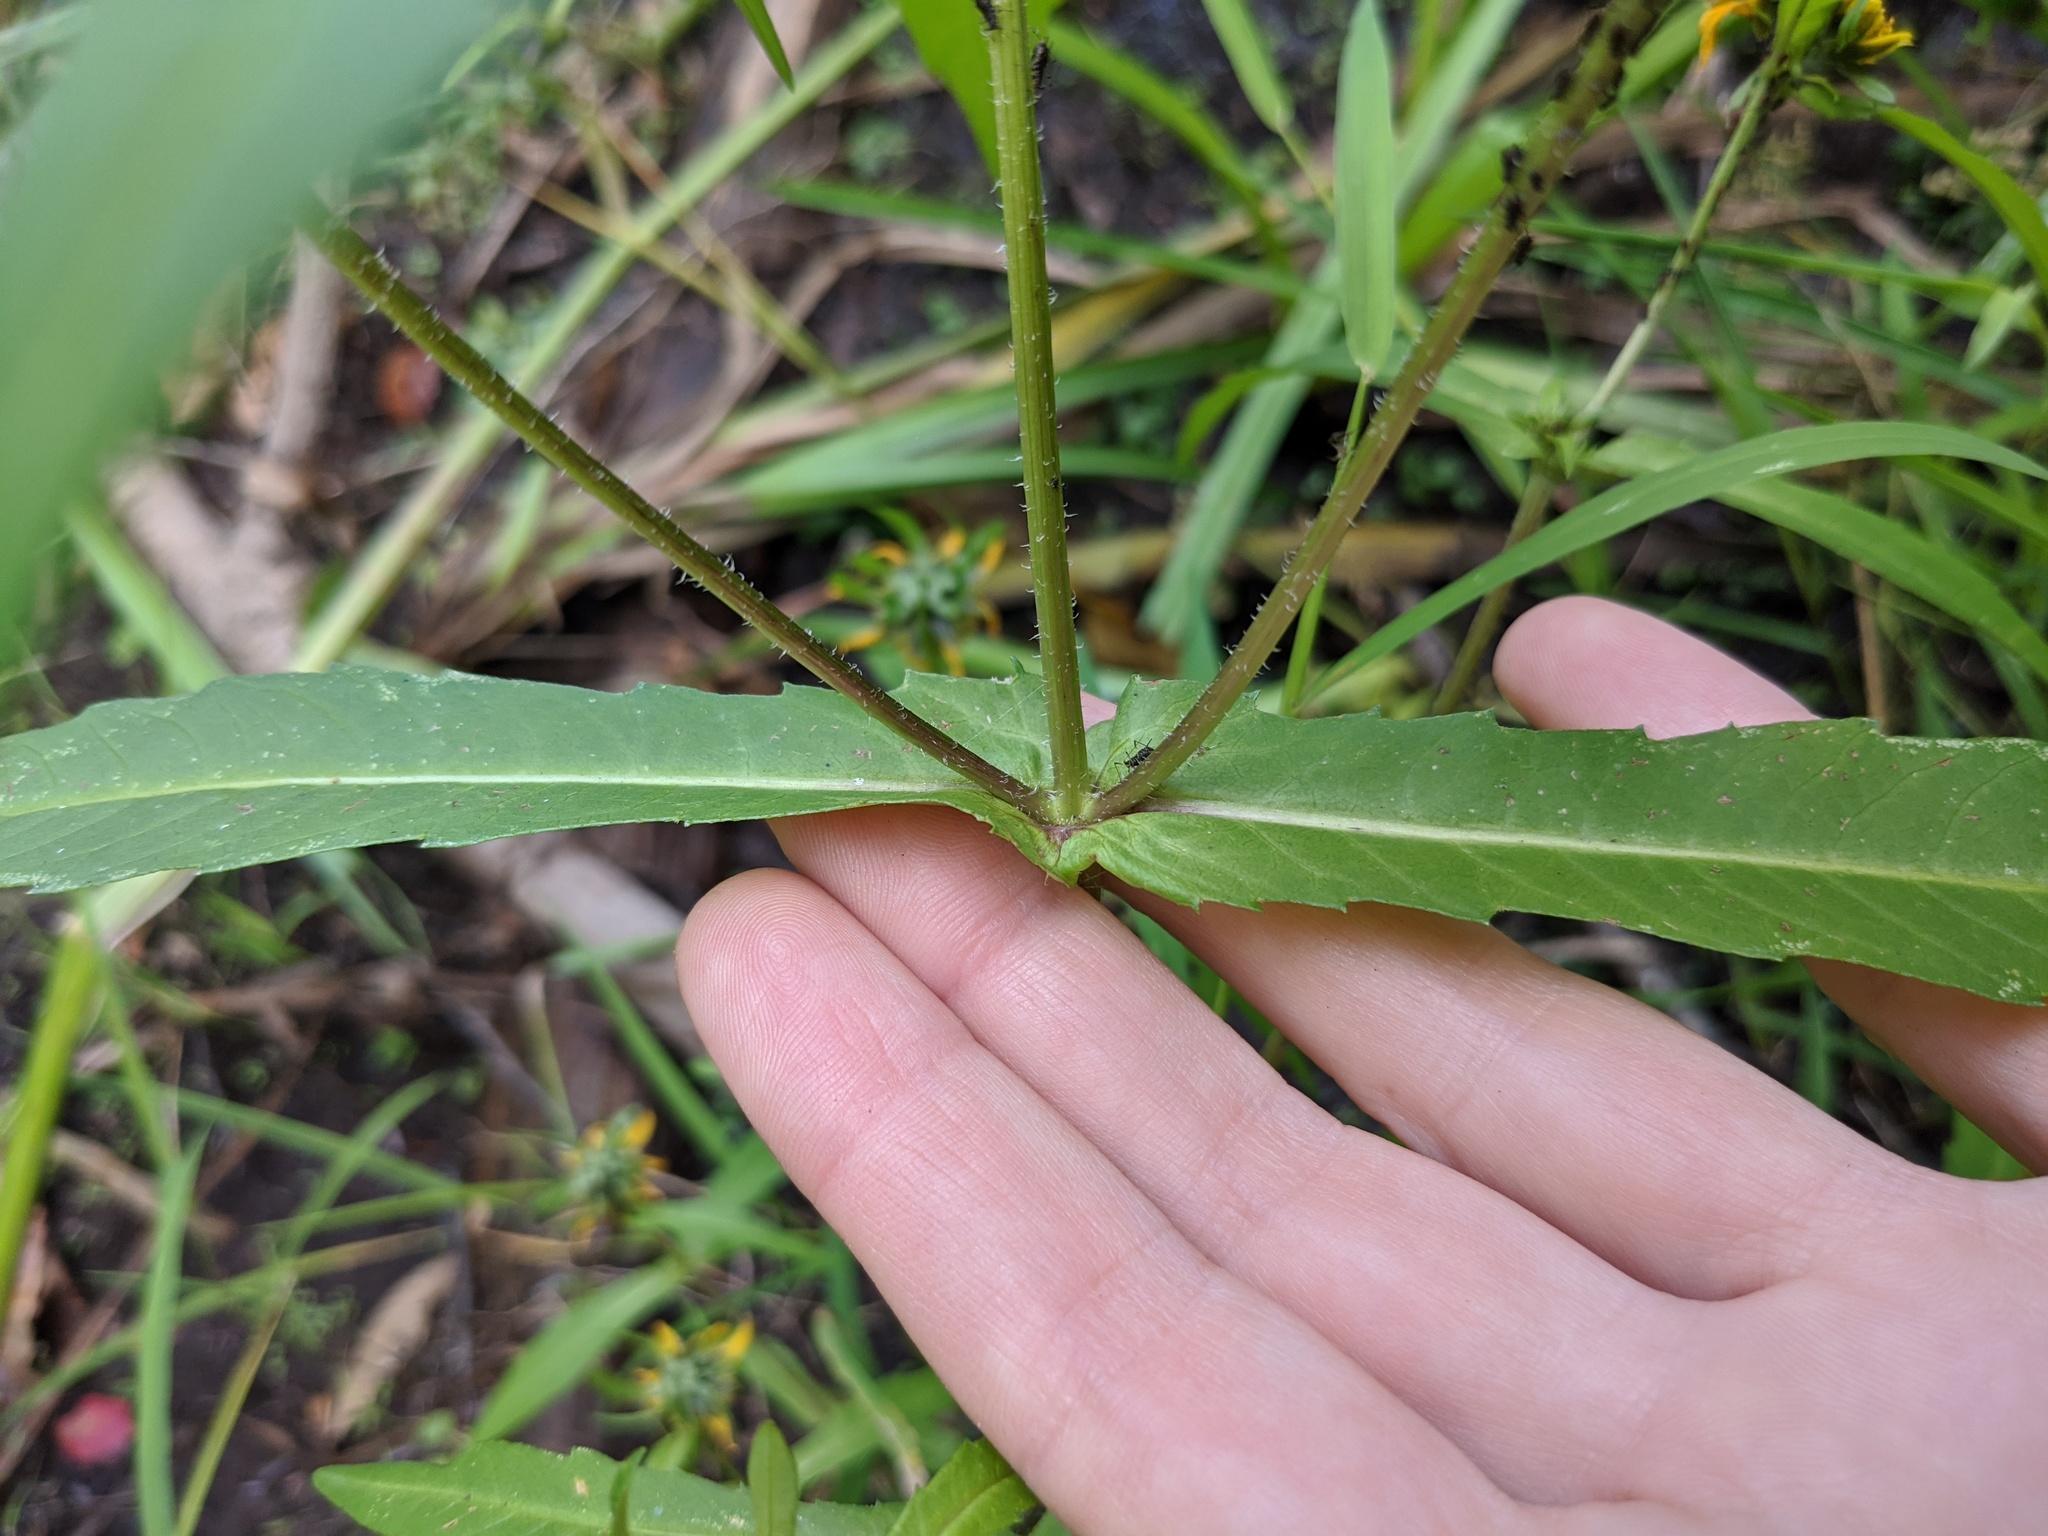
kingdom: Plantae
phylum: Tracheophyta
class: Magnoliopsida
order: Asterales
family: Asteraceae
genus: Bidens
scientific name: Bidens cernua
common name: Nodding bur-marigold
